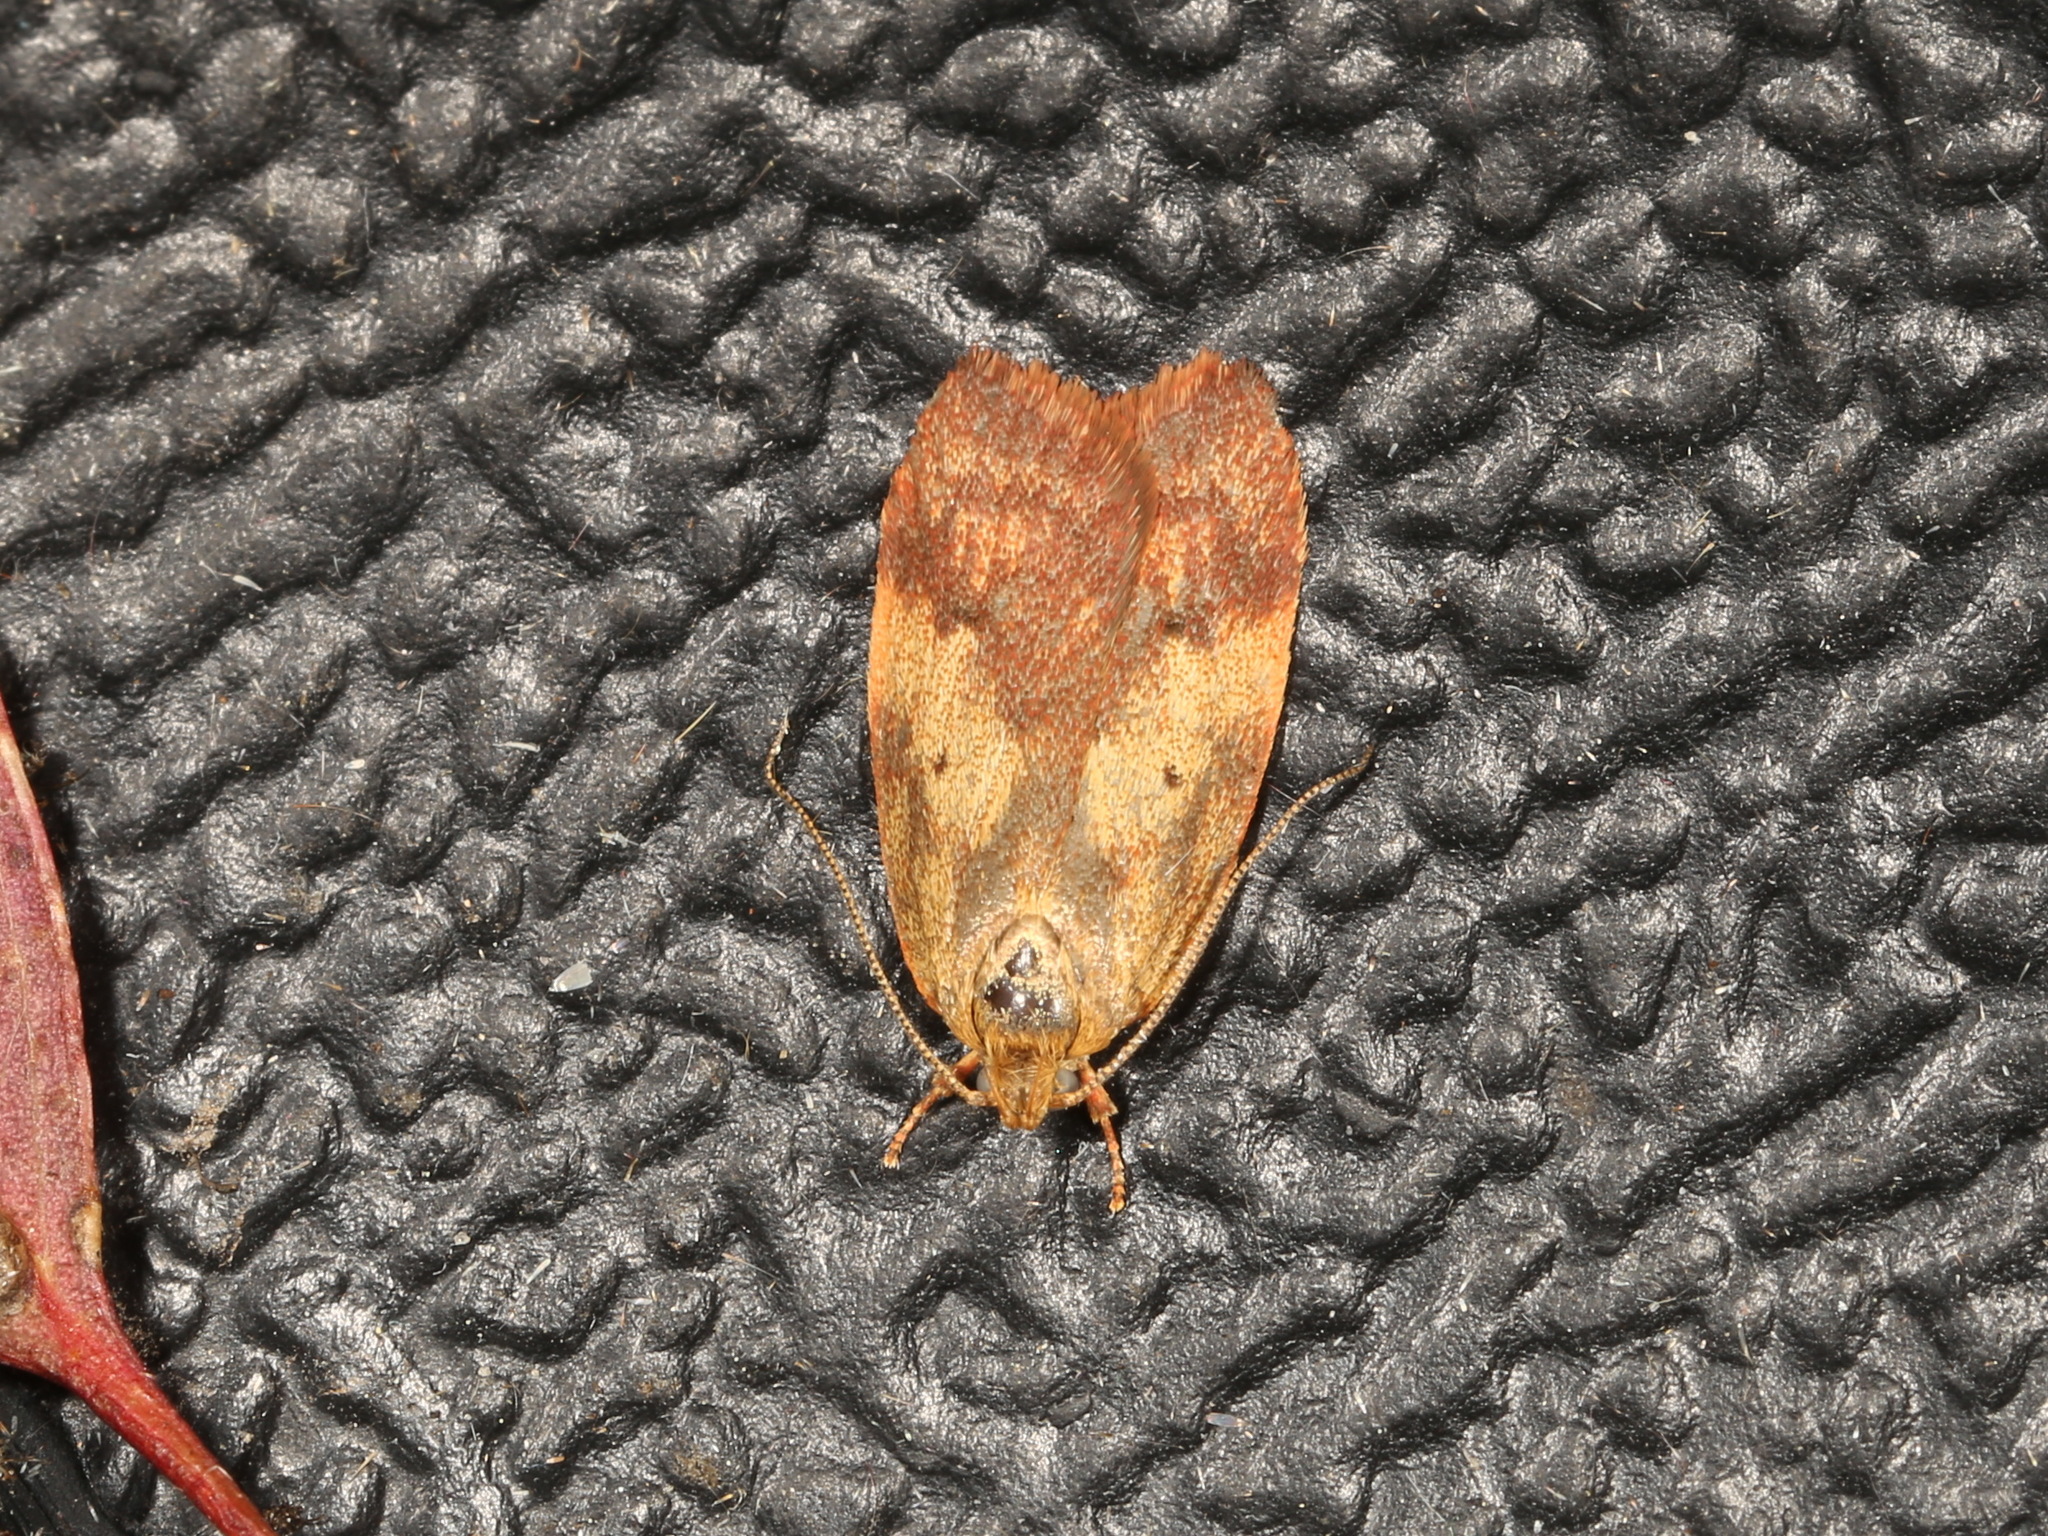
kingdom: Animalia
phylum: Arthropoda
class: Insecta
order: Lepidoptera
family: Oecophoridae
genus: Garrha
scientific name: Garrha absumptella
